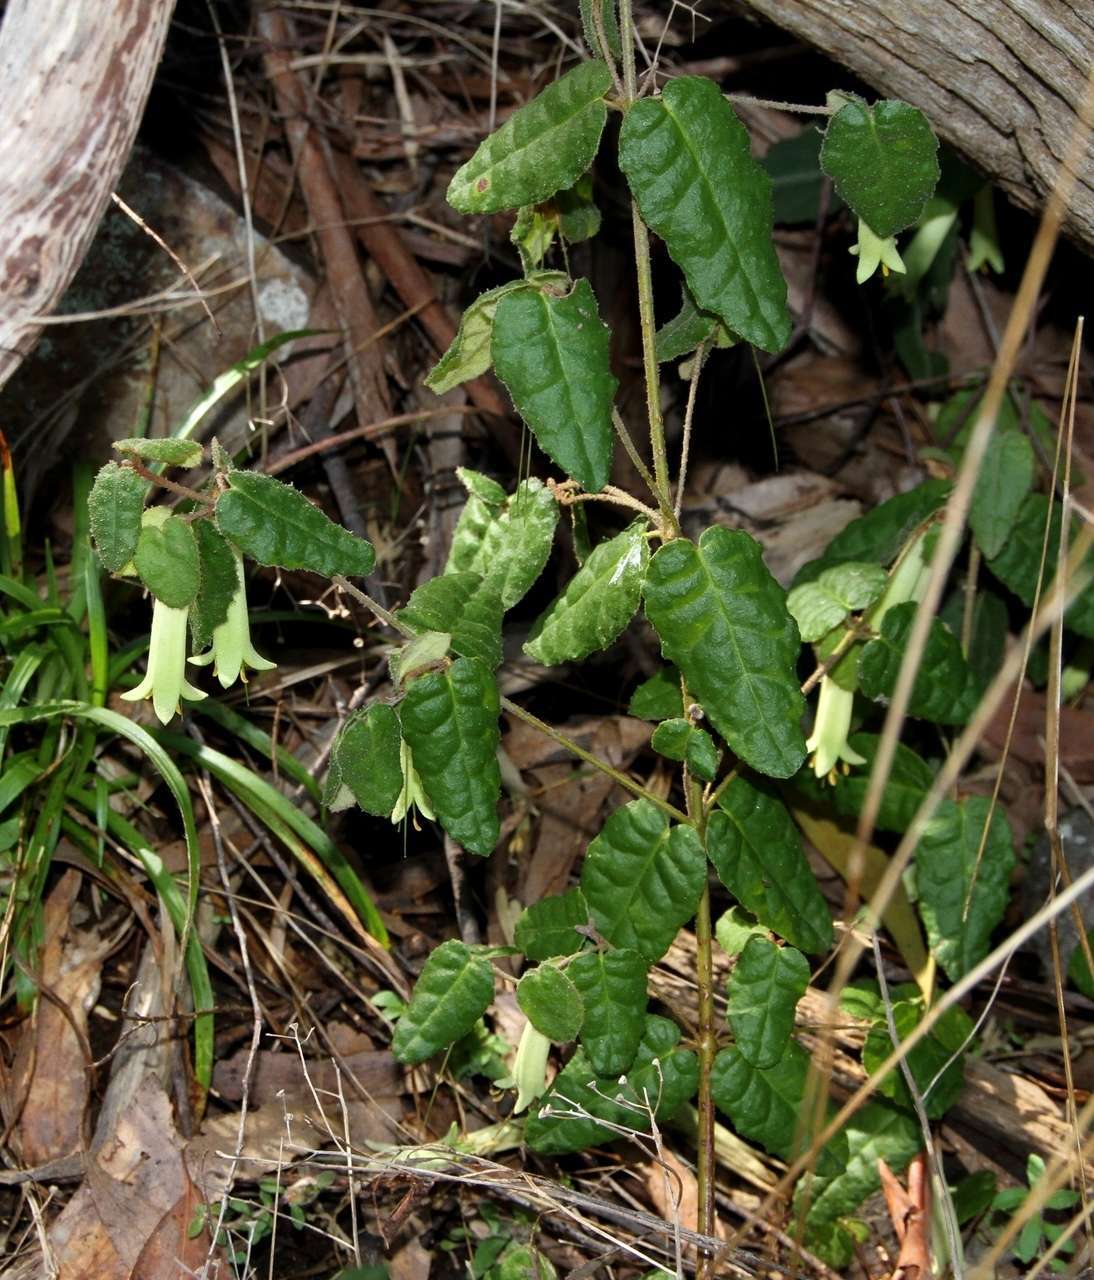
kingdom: Plantae
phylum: Tracheophyta
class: Magnoliopsida
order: Sapindales
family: Rutaceae
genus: Correa
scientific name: Correa reflexa
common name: Common correa
